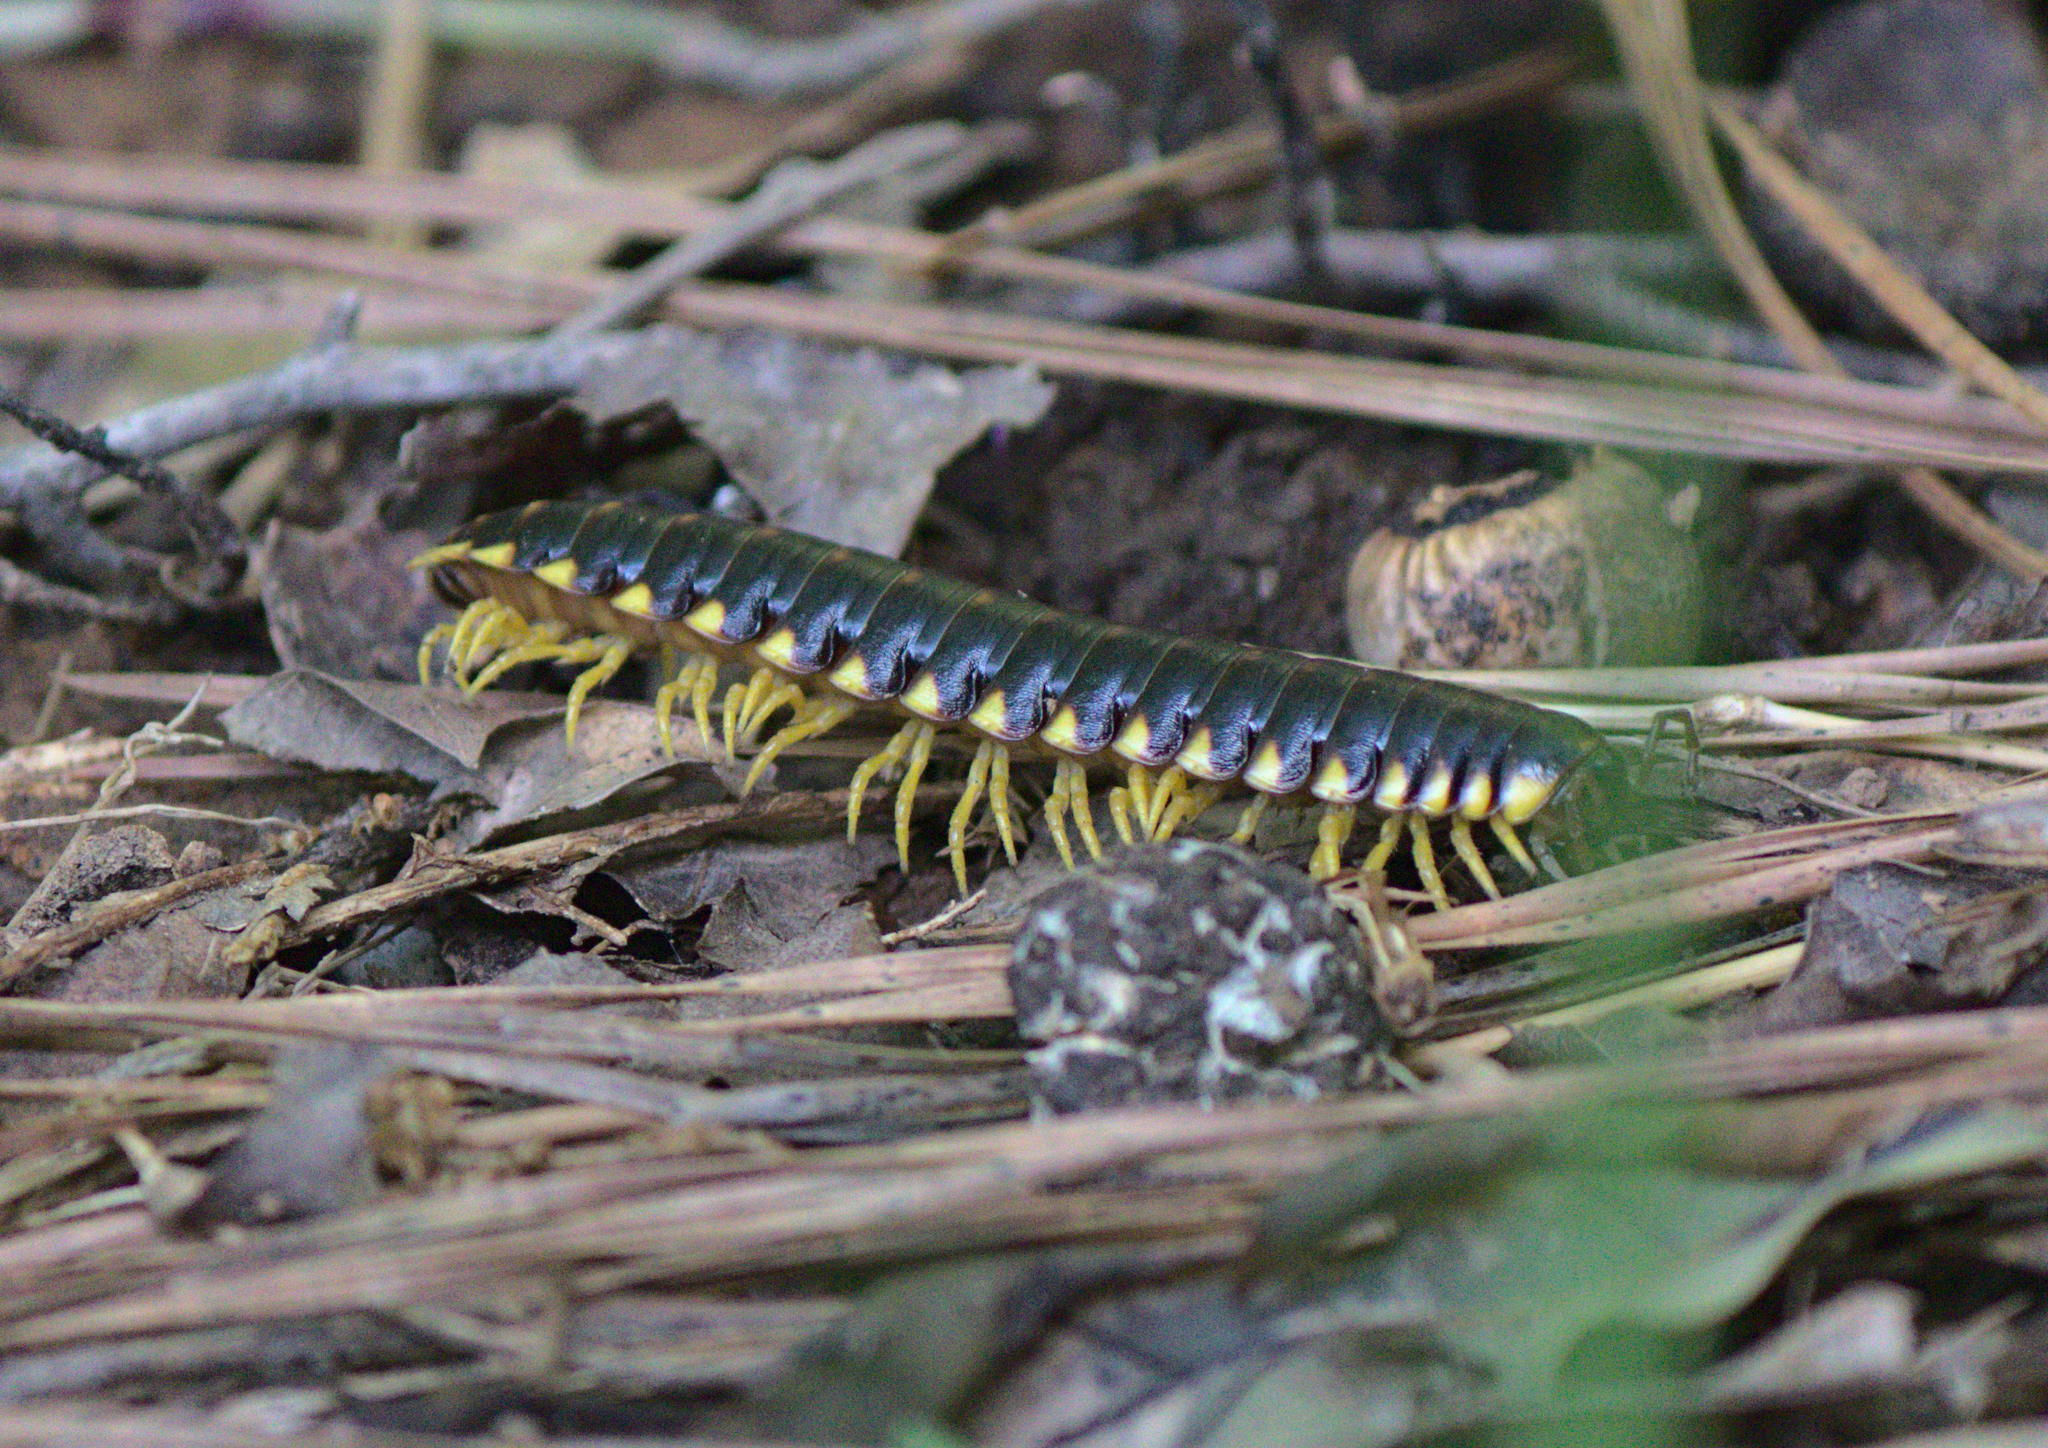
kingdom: Animalia
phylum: Arthropoda
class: Diplopoda
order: Polydesmida
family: Xystodesmidae
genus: Apheloria
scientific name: Apheloria tigana
